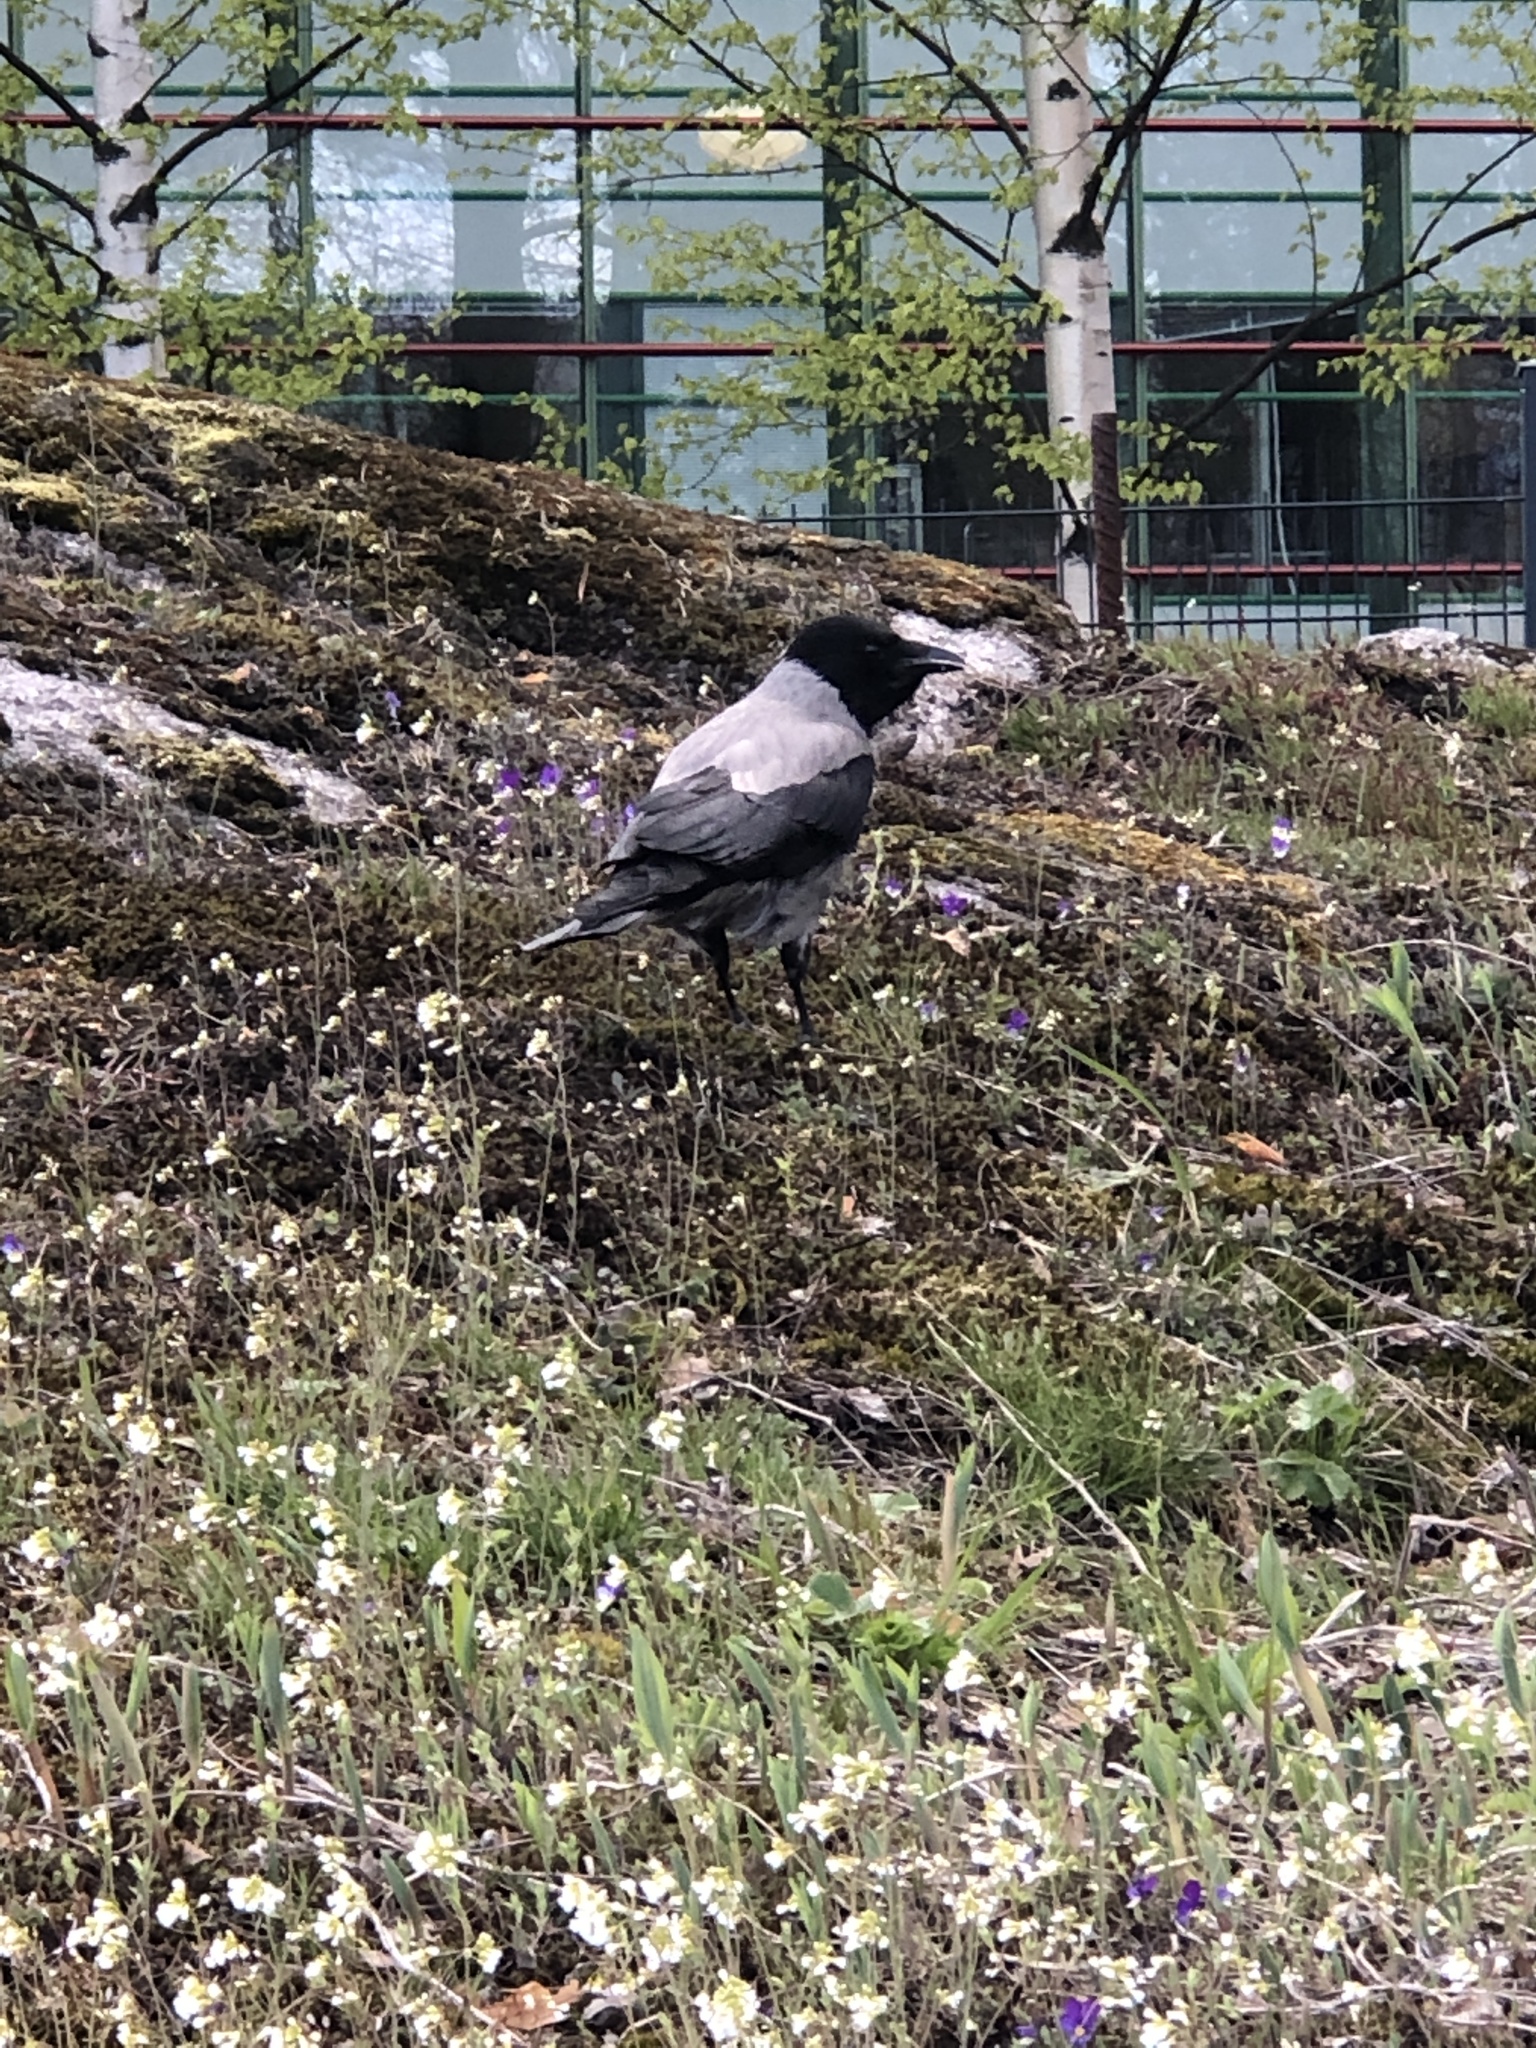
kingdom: Animalia
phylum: Chordata
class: Aves
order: Passeriformes
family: Corvidae
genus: Corvus
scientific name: Corvus cornix
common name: Hooded crow
